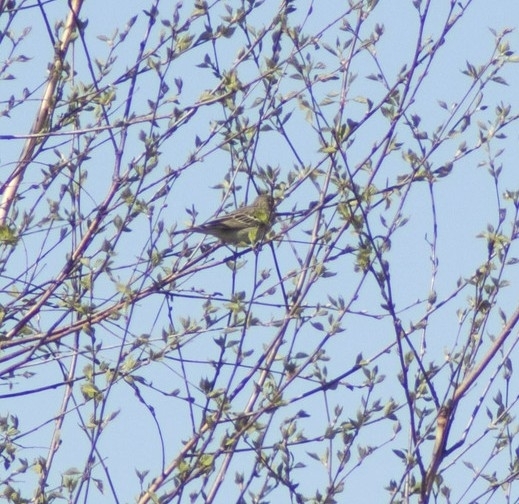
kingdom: Animalia
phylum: Chordata
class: Aves
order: Passeriformes
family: Emberizidae
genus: Emberiza
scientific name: Emberiza citrinella
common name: Yellowhammer
